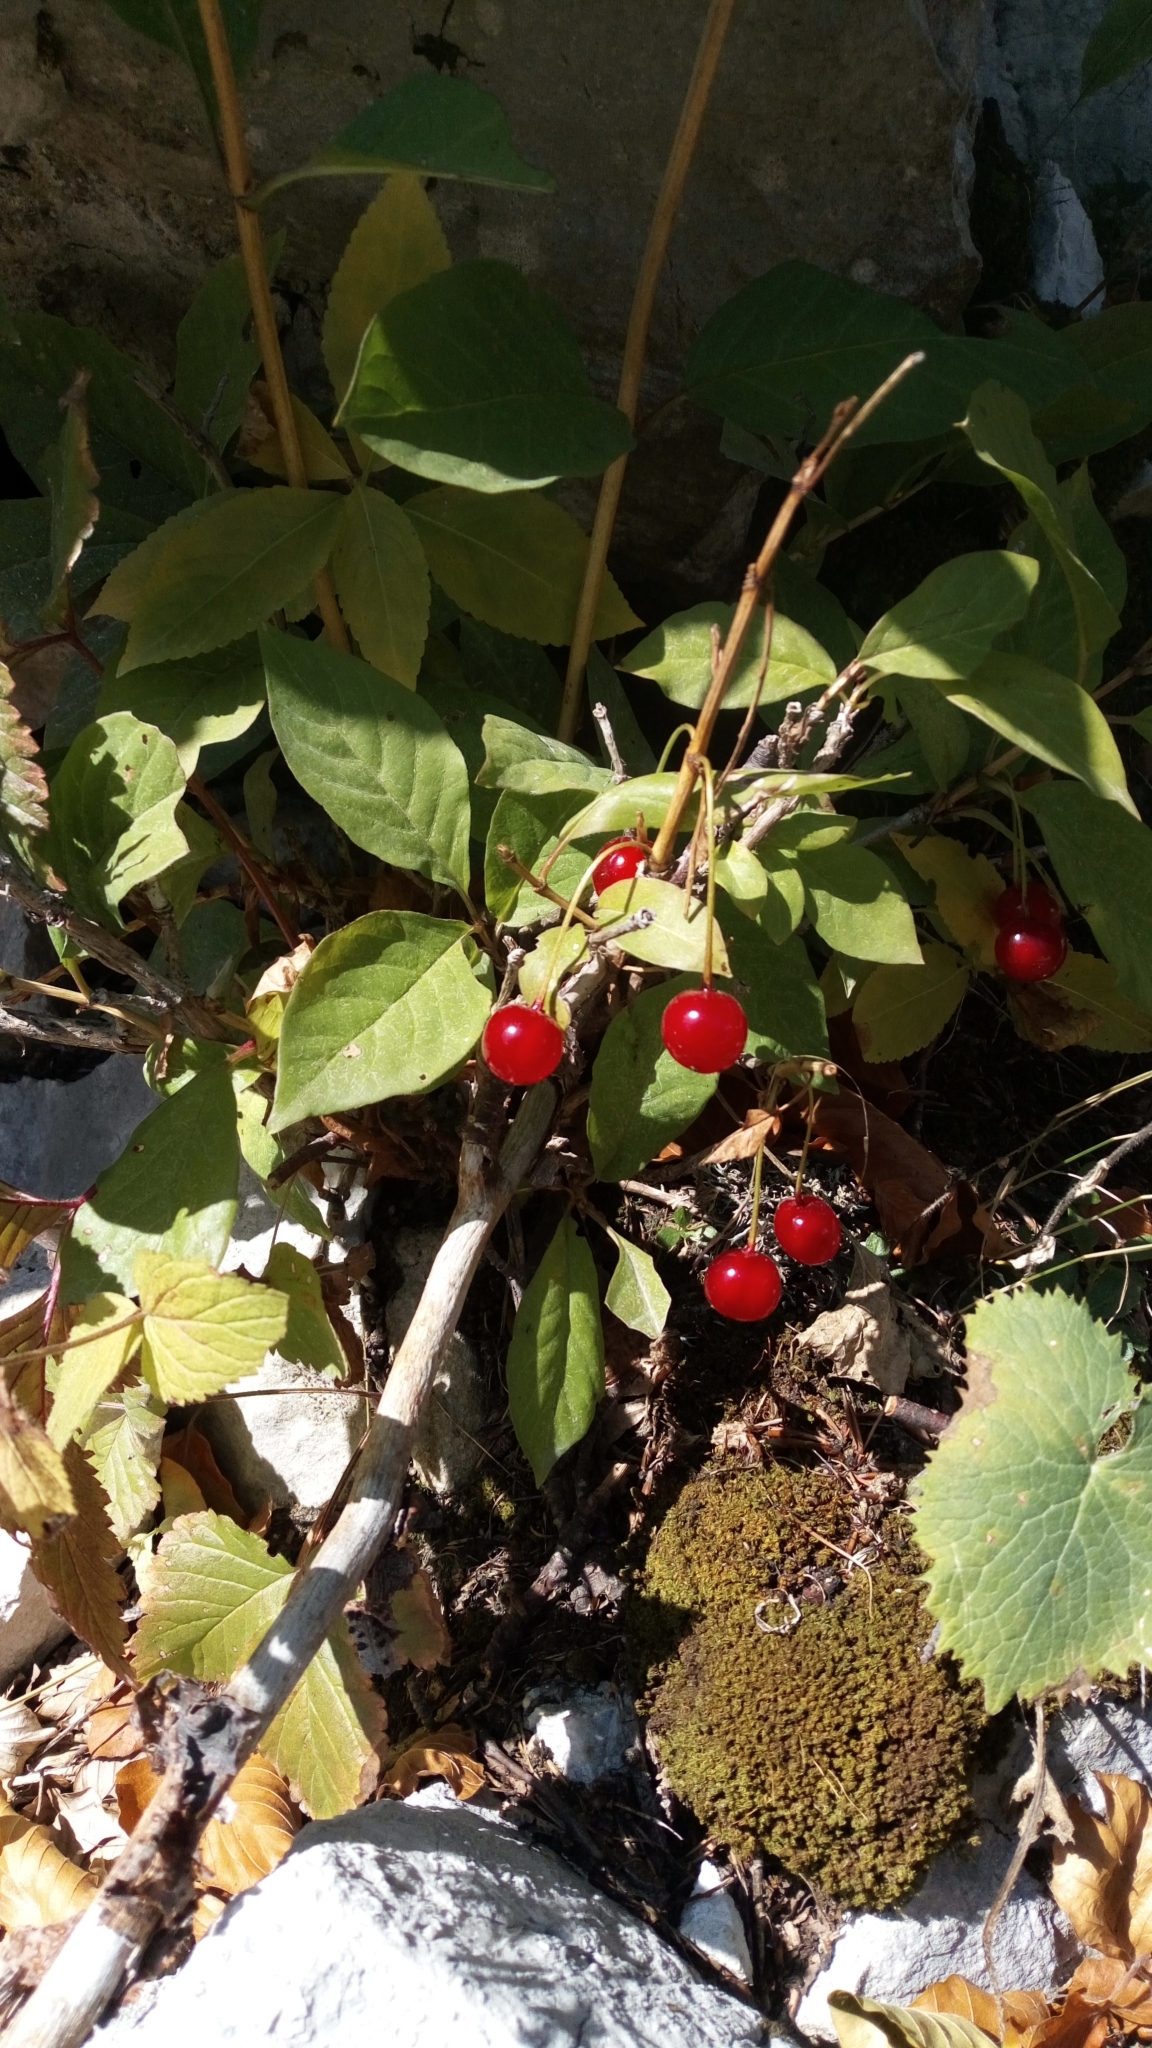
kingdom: Plantae
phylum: Tracheophyta
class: Magnoliopsida
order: Dipsacales
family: Caprifoliaceae
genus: Lonicera
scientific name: Lonicera alpigena
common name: Alpine honeysuckle
